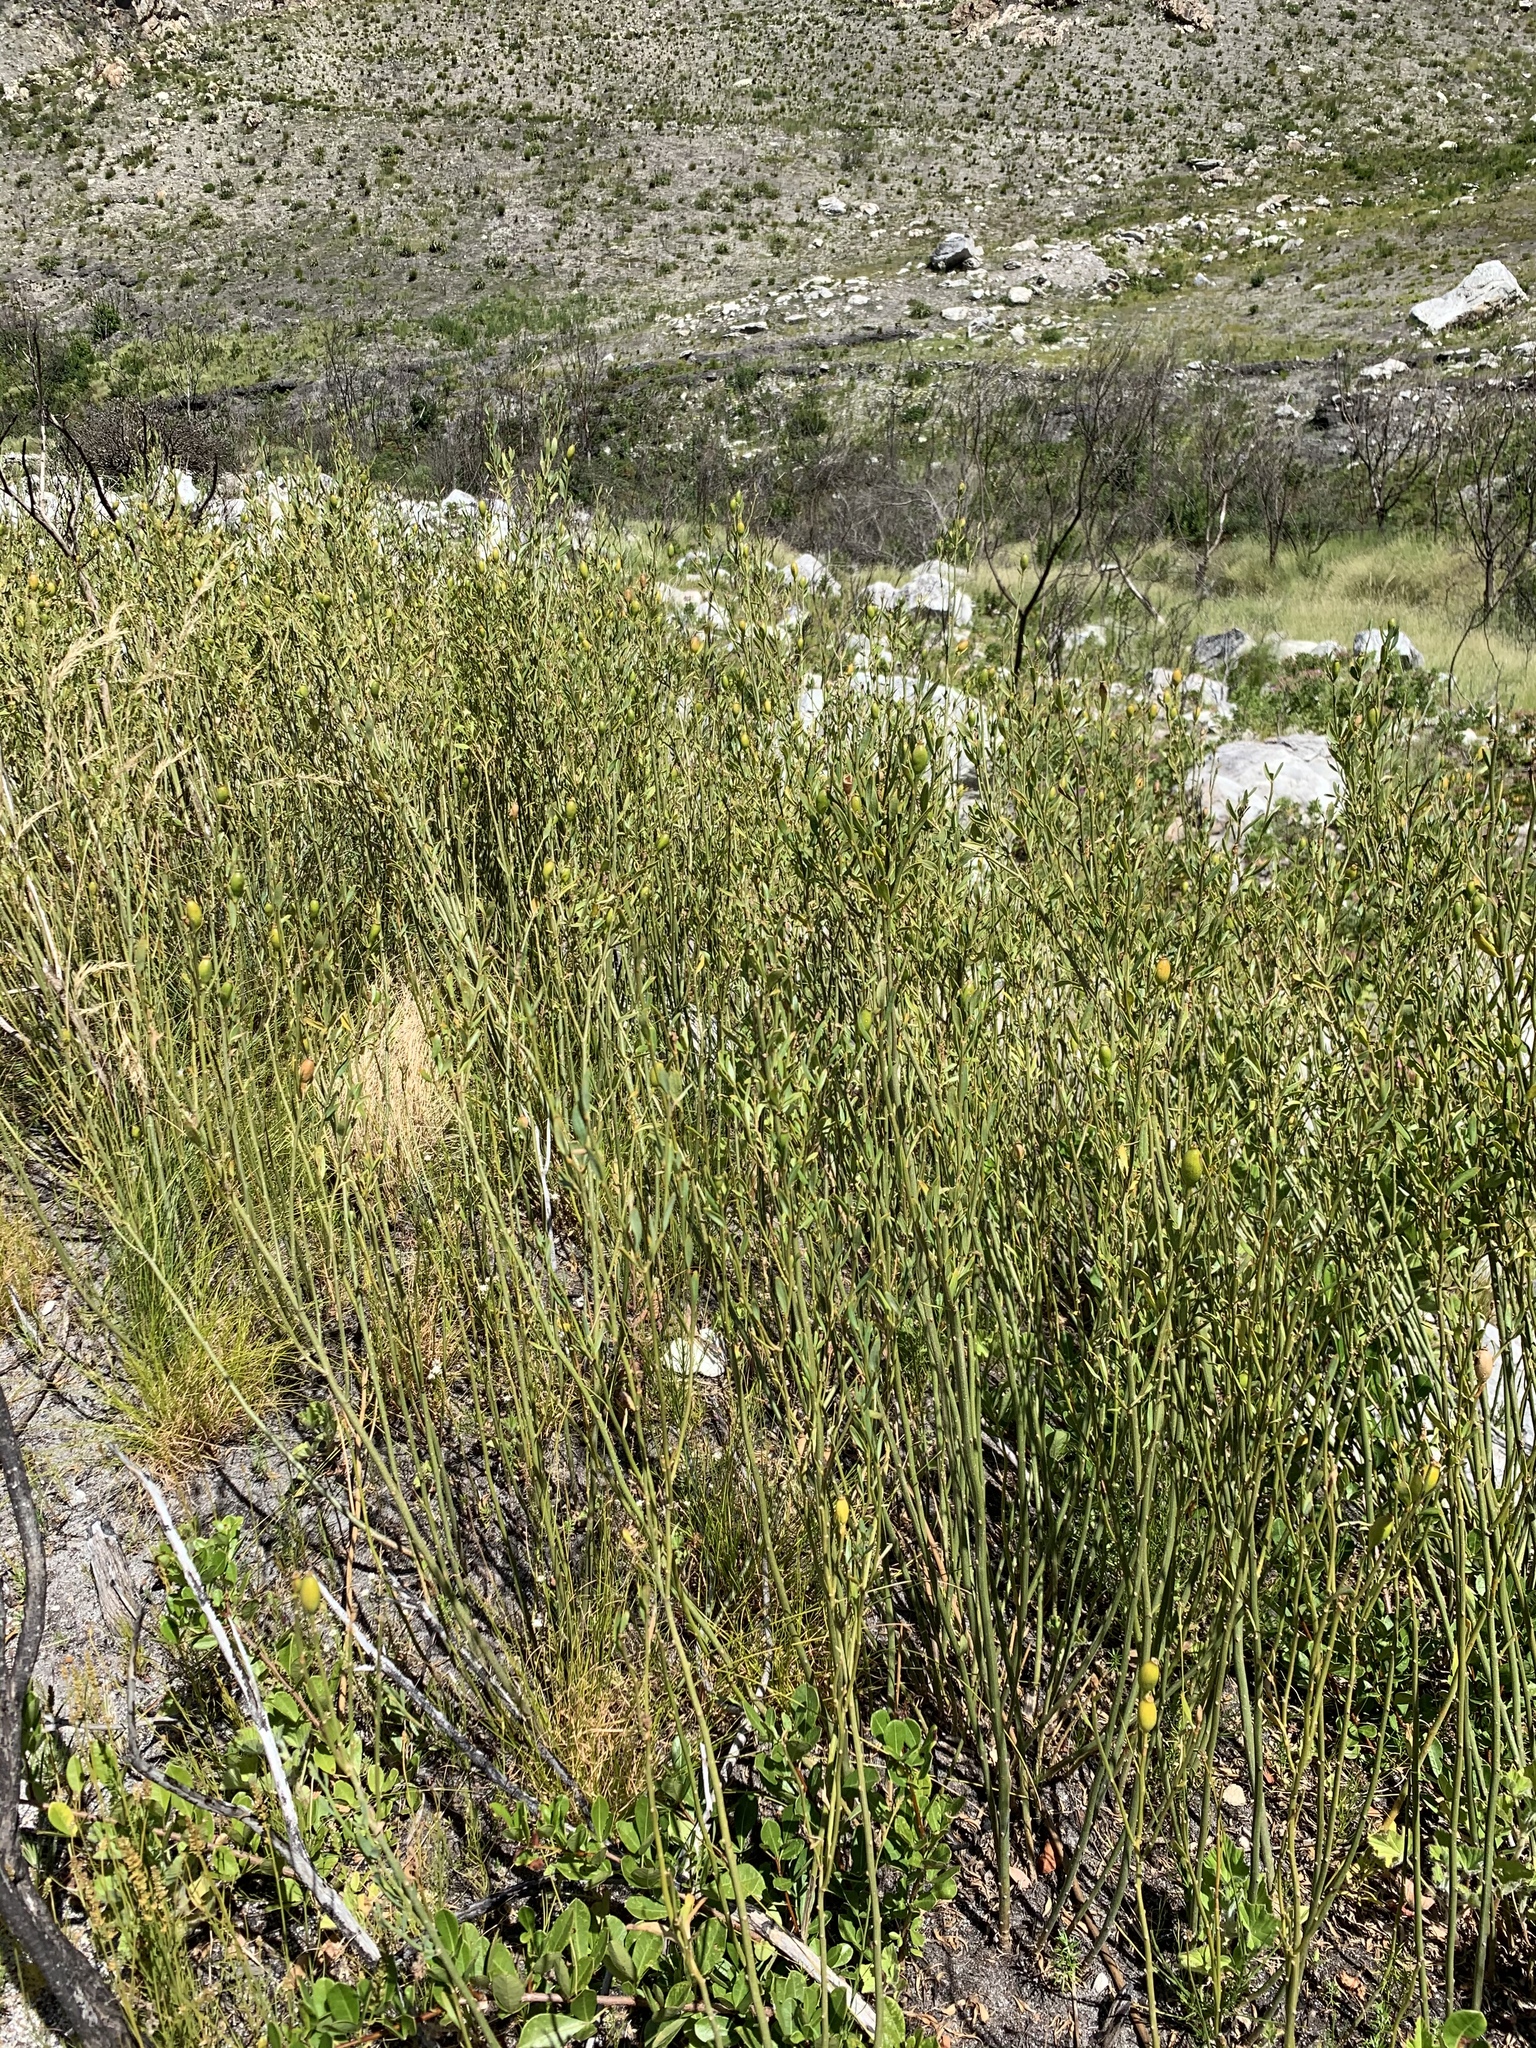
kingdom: Plantae
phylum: Tracheophyta
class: Magnoliopsida
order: Solanales
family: Montiniaceae
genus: Montinia
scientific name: Montinia caryophyllacea
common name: Wild clove-bush
